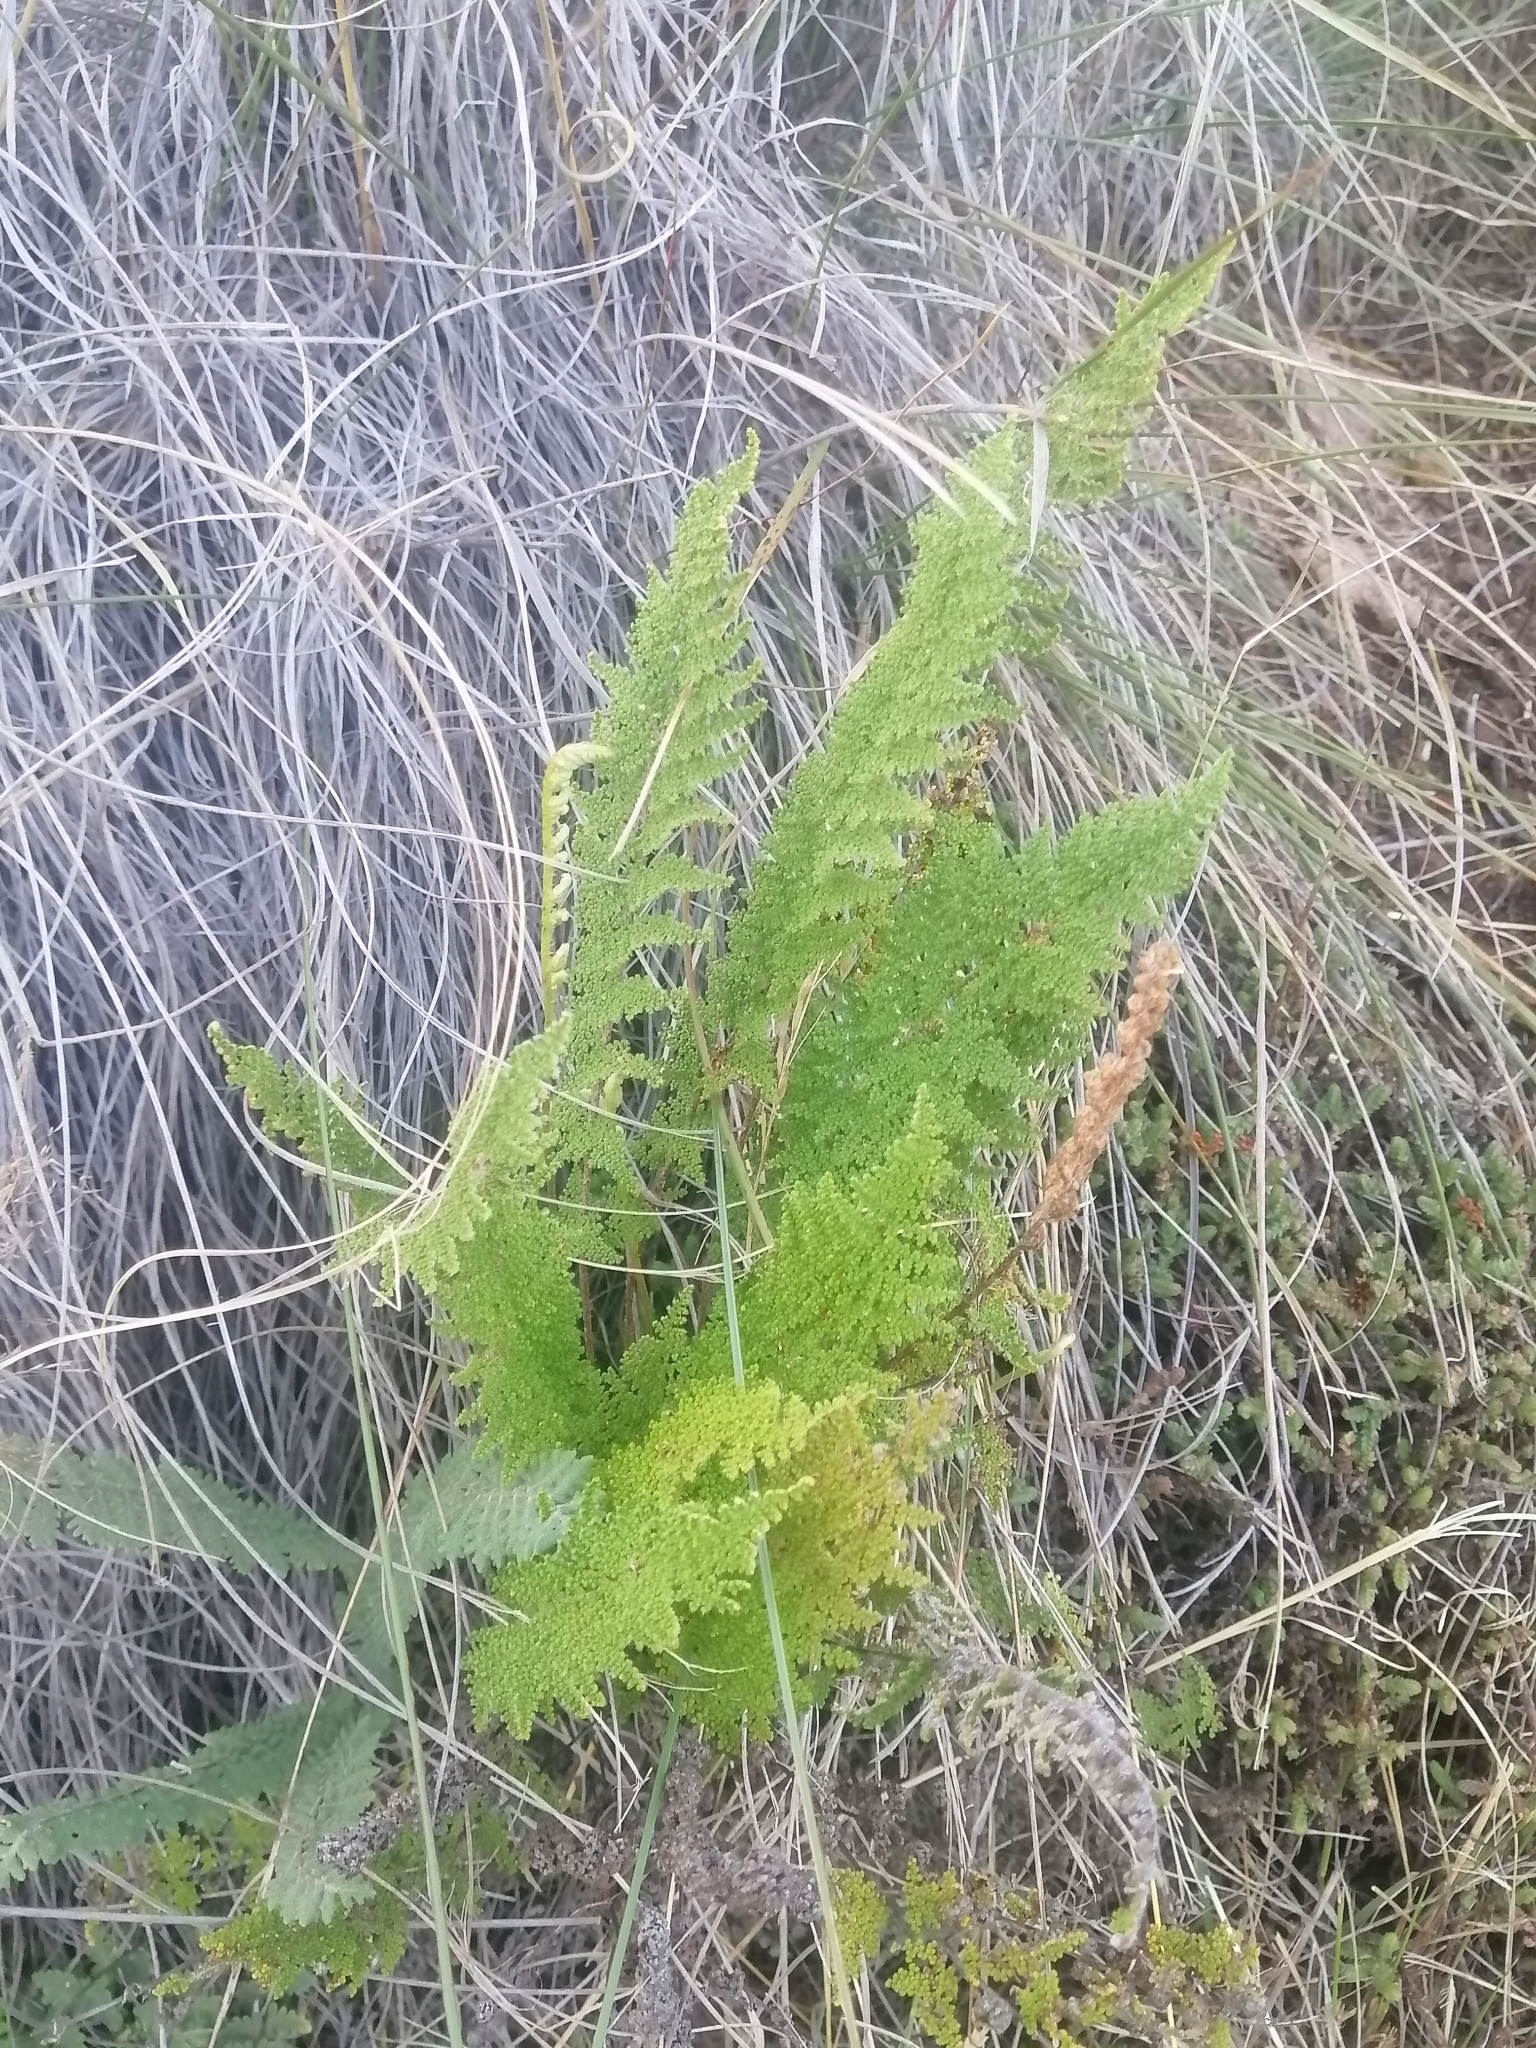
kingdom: Plantae
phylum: Tracheophyta
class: Polypodiopsida
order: Polypodiales
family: Pteridaceae
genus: Myriopteris
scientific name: Myriopteris myriophylla
